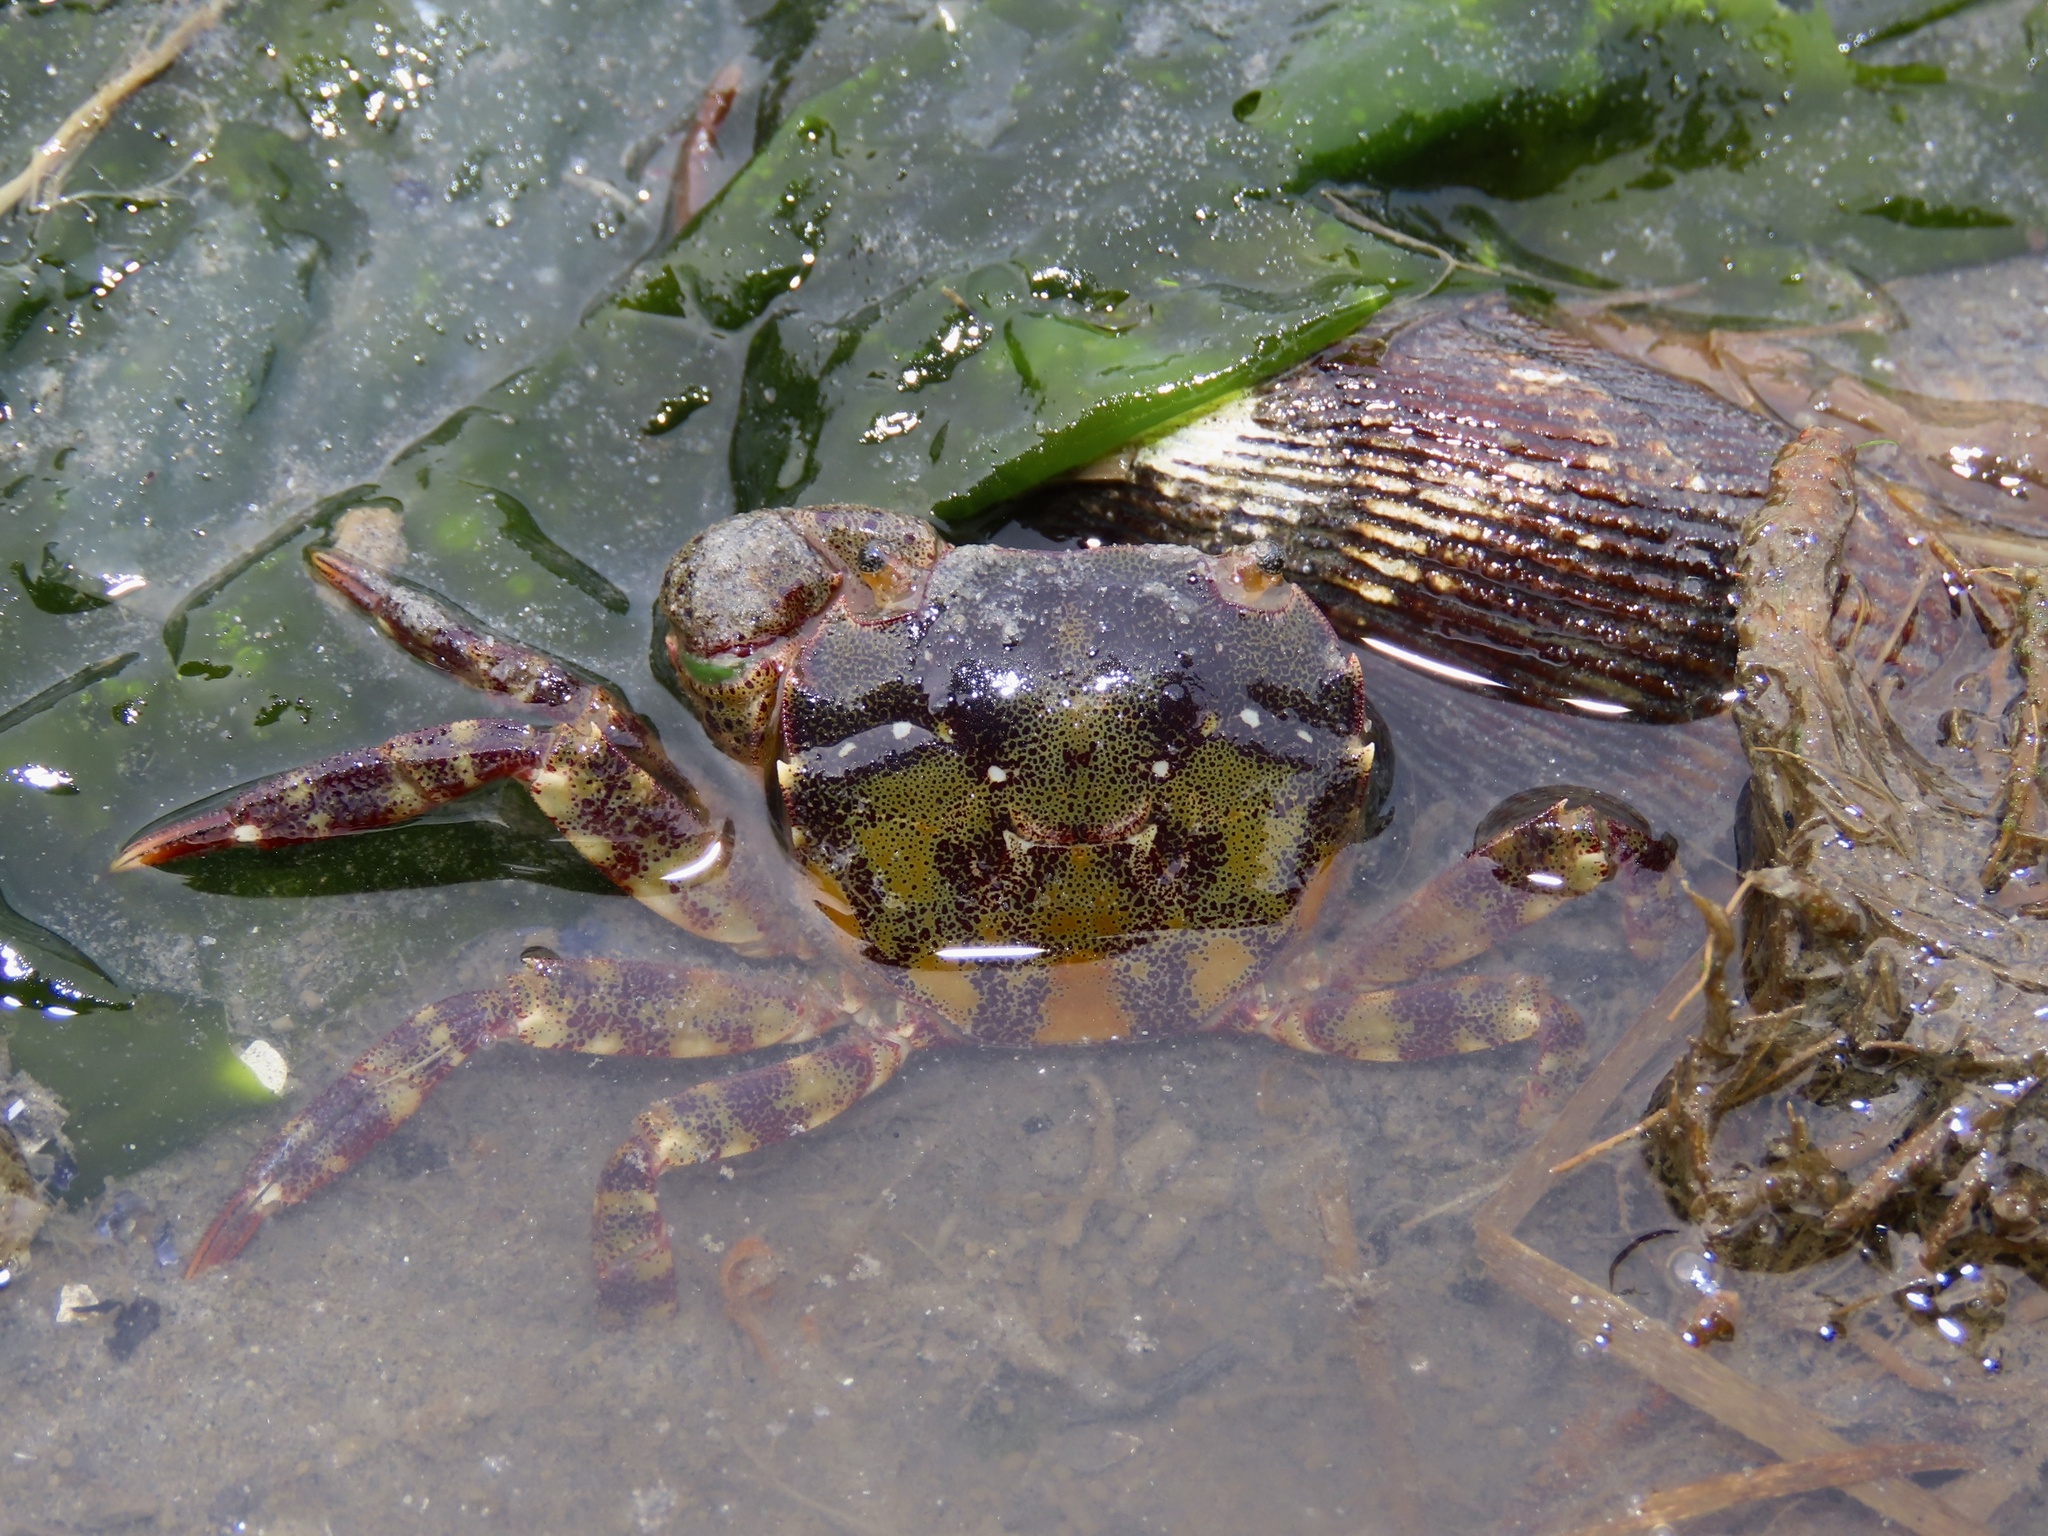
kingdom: Animalia
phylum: Arthropoda
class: Malacostraca
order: Decapoda
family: Varunidae
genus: Hemigrapsus
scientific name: Hemigrapsus sanguineus
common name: Asian shore crab
